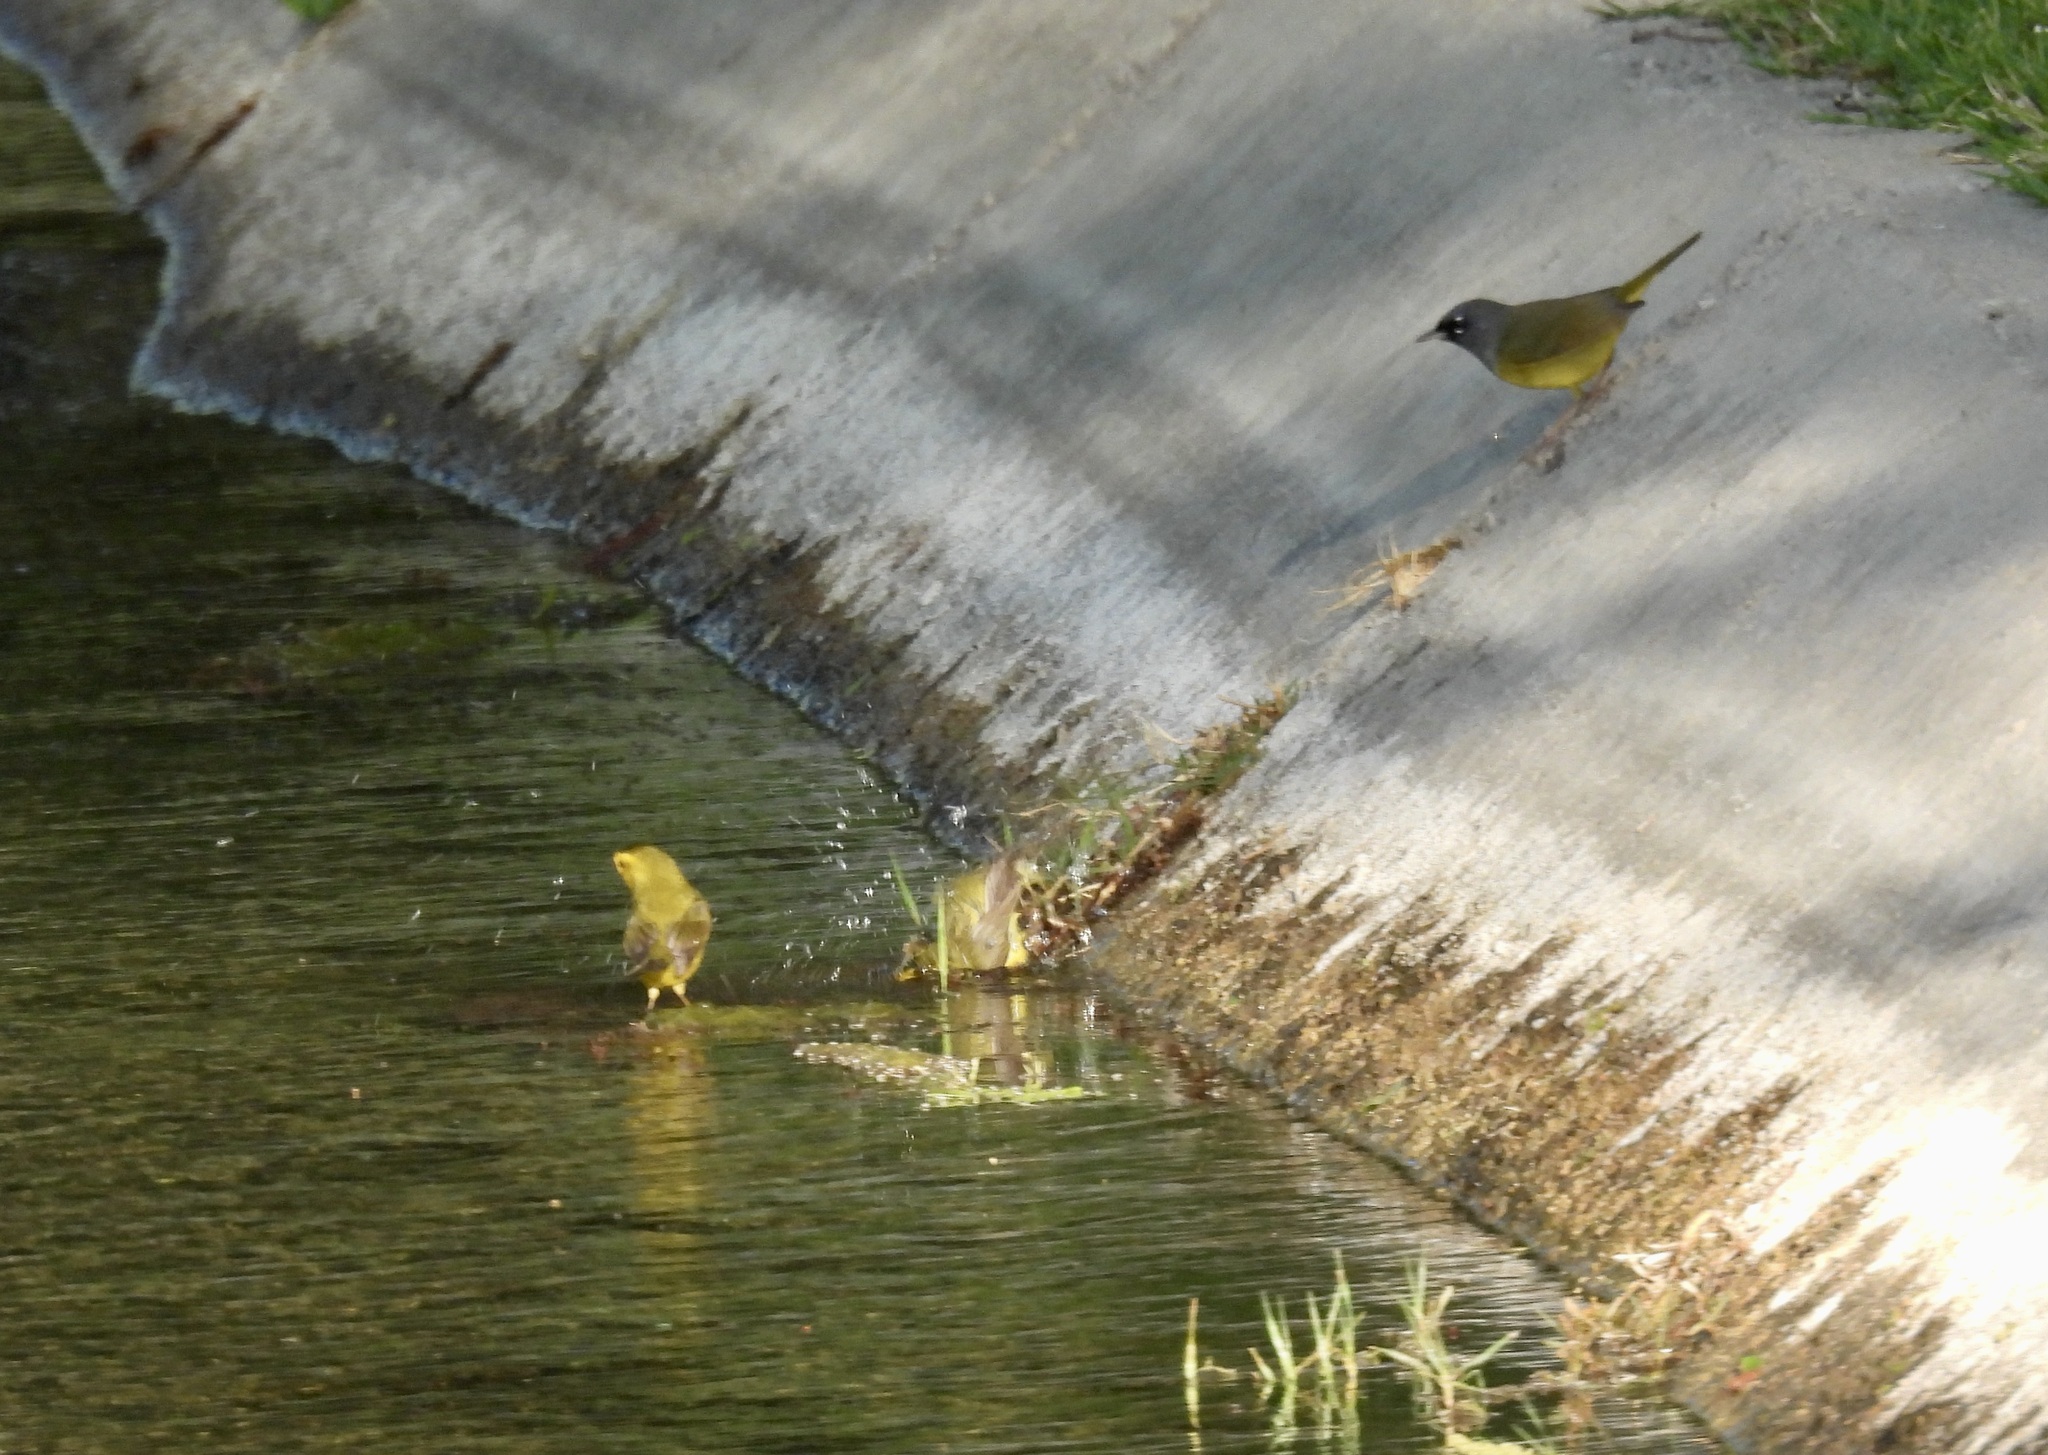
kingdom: Animalia
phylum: Chordata
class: Aves
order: Passeriformes
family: Parulidae
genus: Geothlypis
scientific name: Geothlypis tolmiei
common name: Macgillivray's warbler
